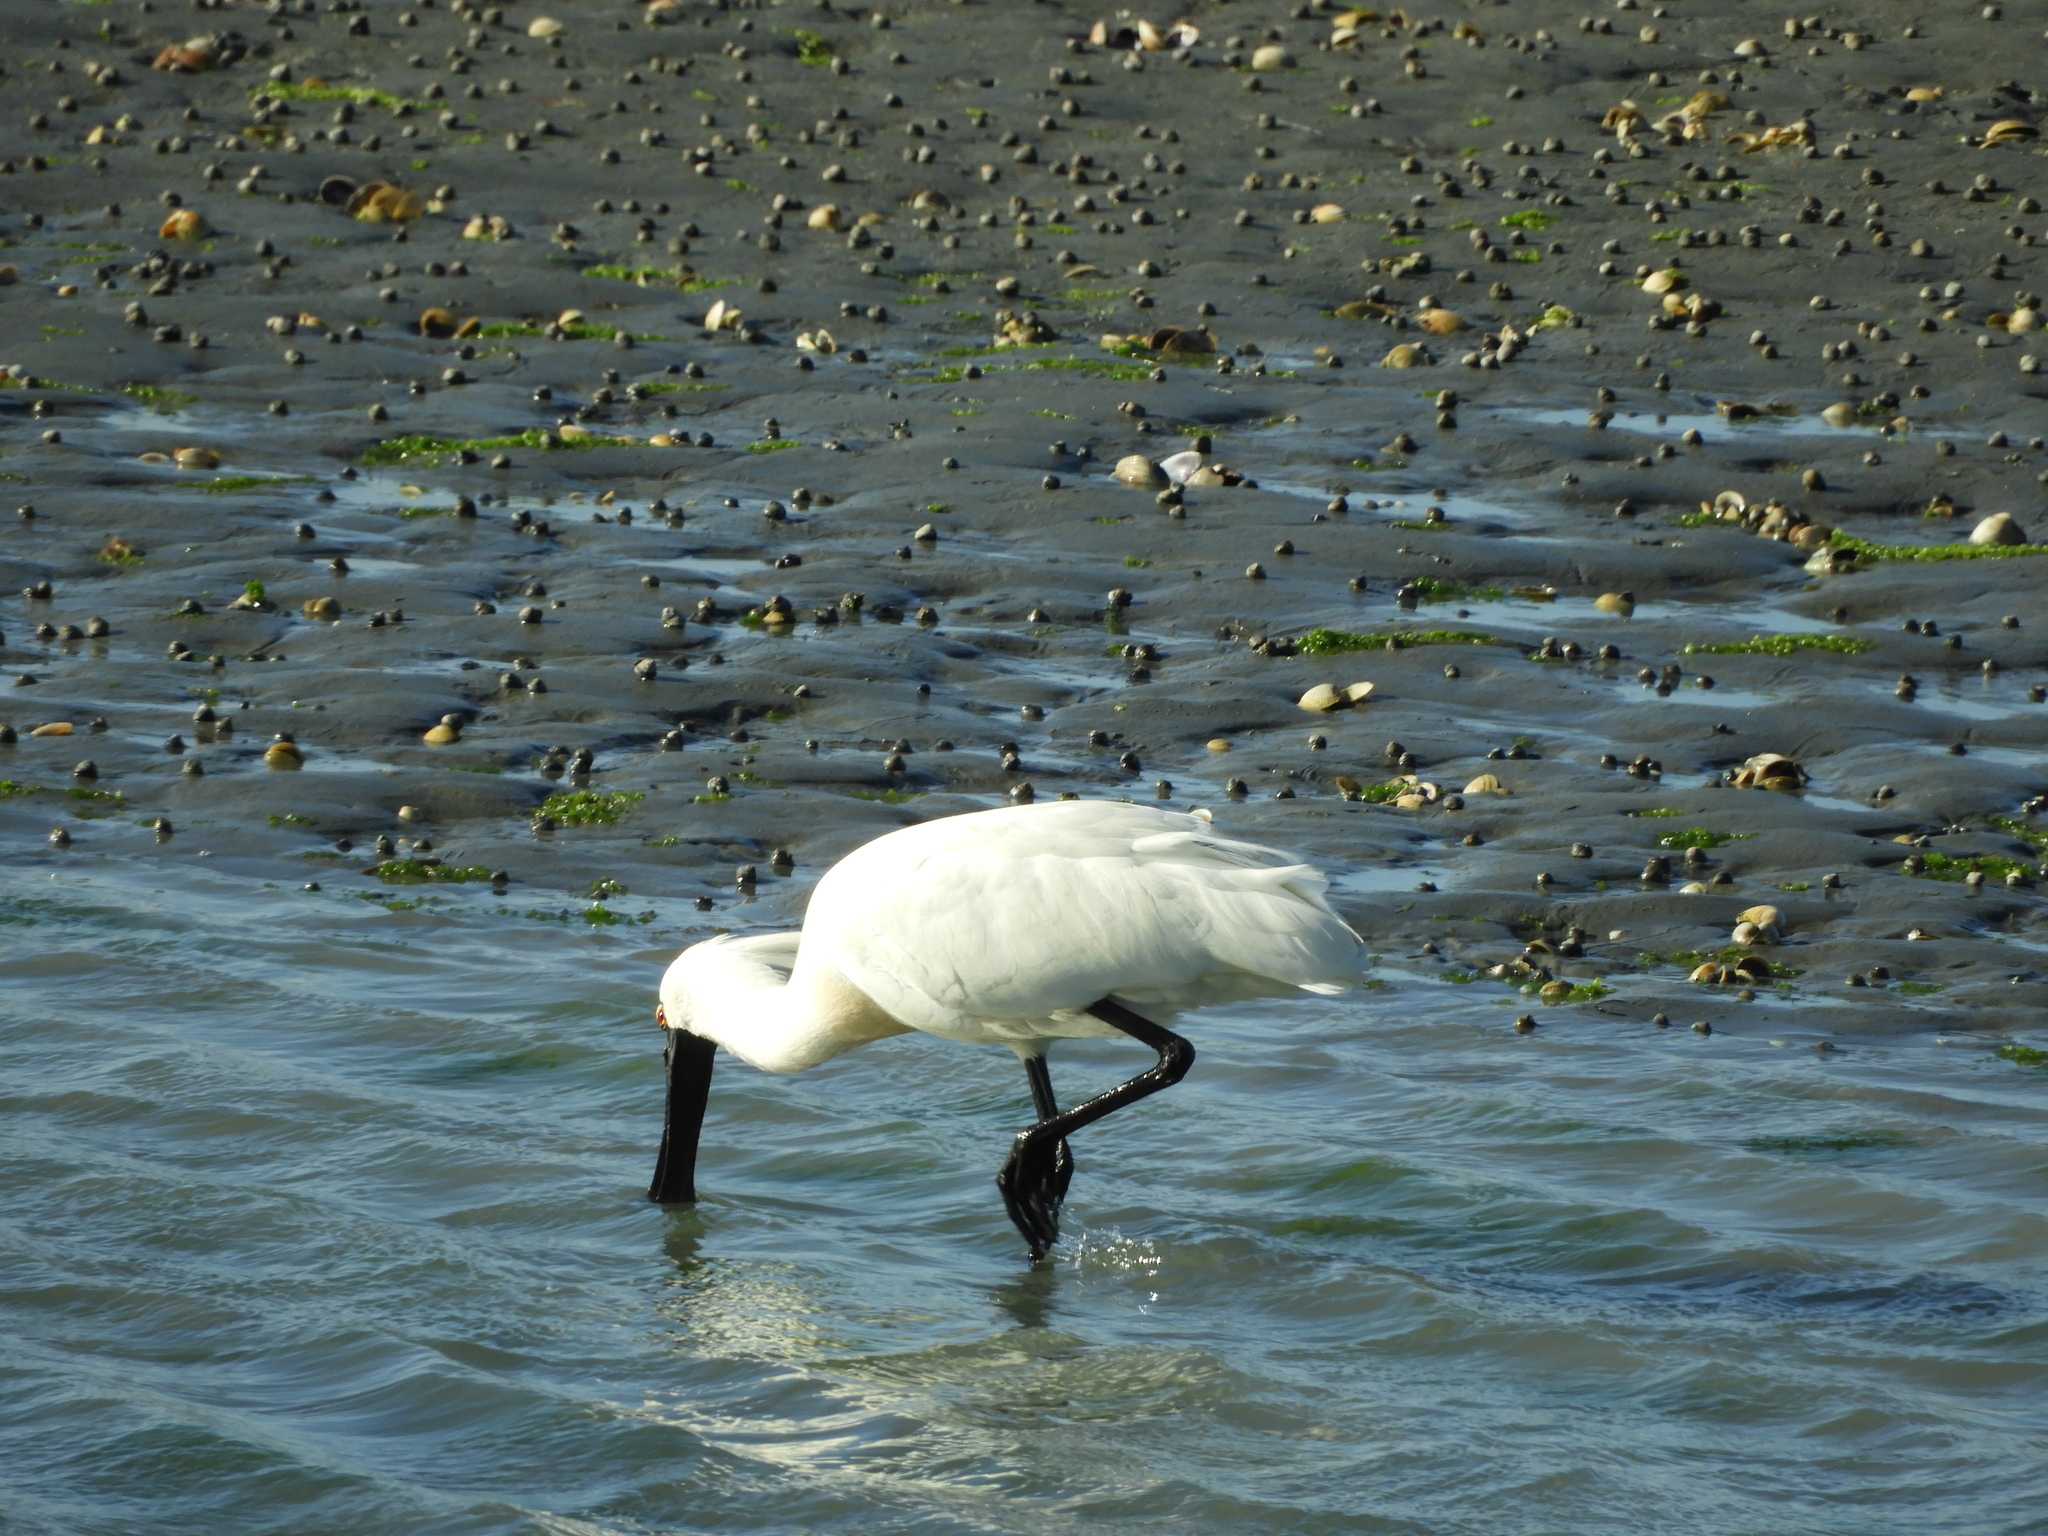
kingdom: Animalia
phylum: Chordata
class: Aves
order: Pelecaniformes
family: Threskiornithidae
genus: Platalea
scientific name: Platalea regia
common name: Royal spoonbill
